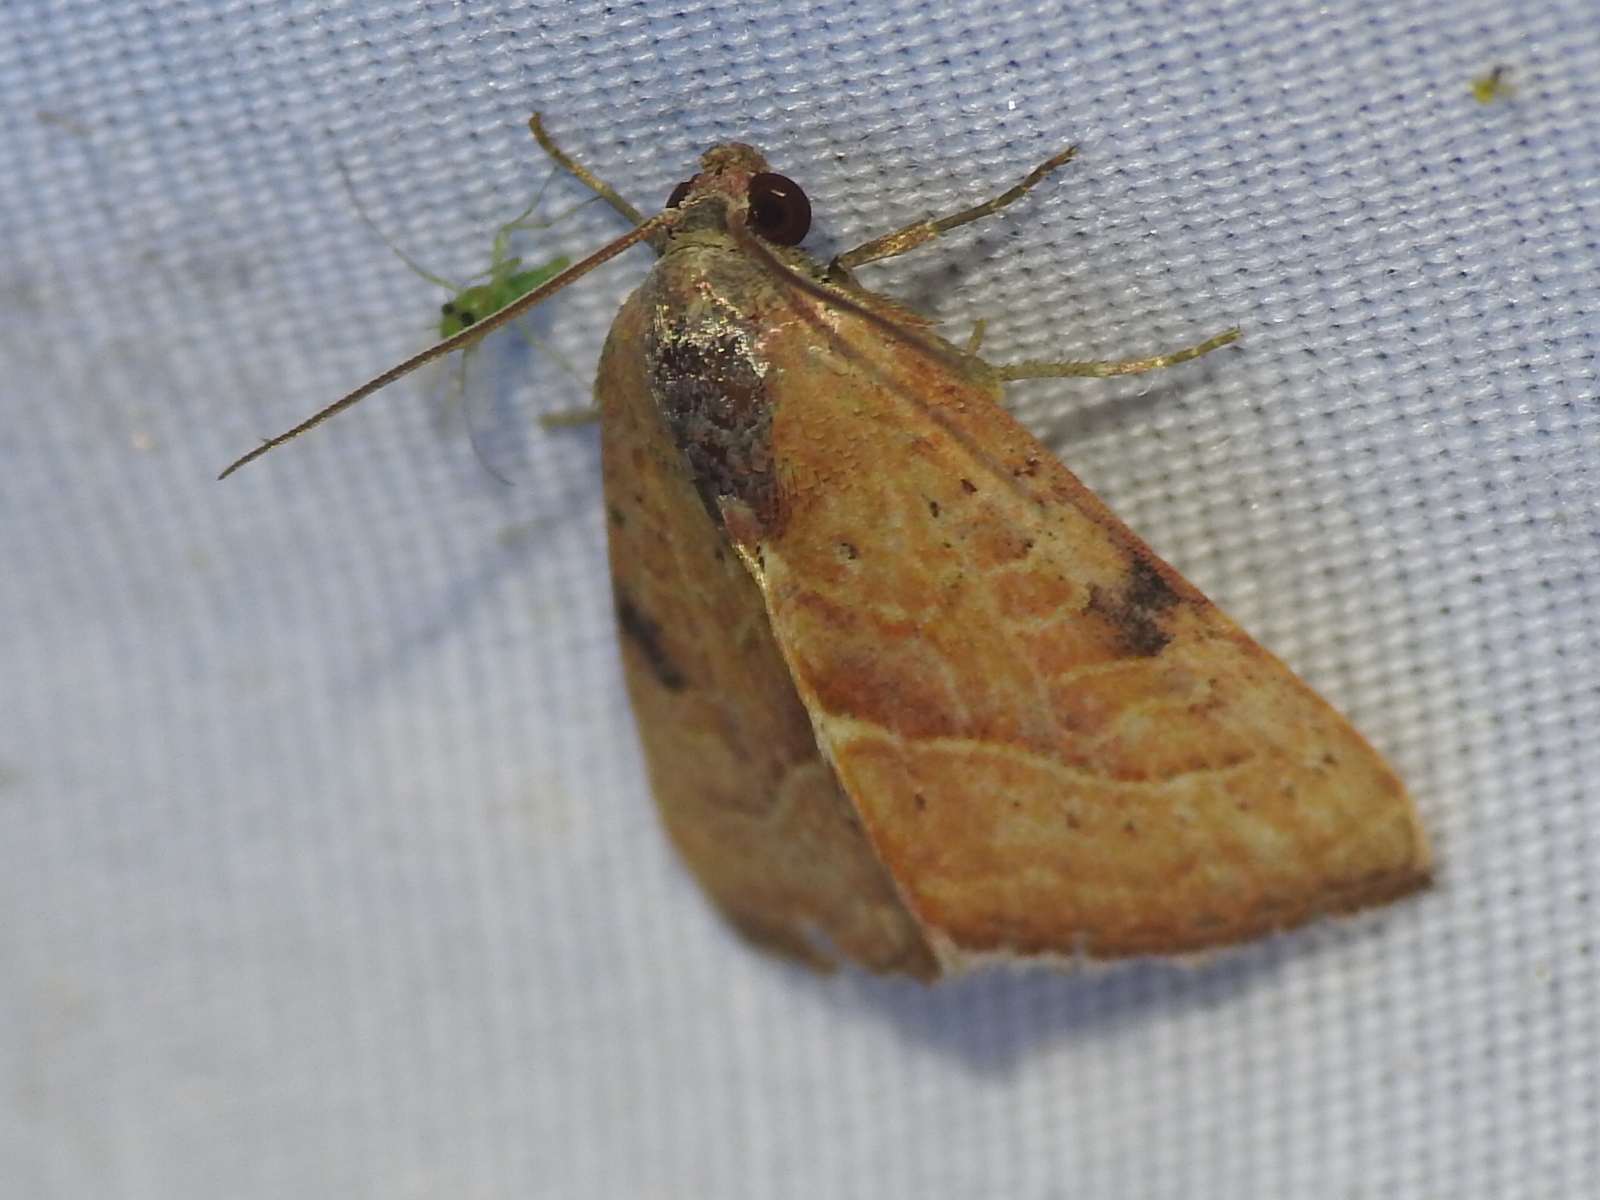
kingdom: Animalia
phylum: Arthropoda
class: Insecta
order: Lepidoptera
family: Noctuidae
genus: Galgula
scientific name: Galgula partita
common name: Wedgeling
